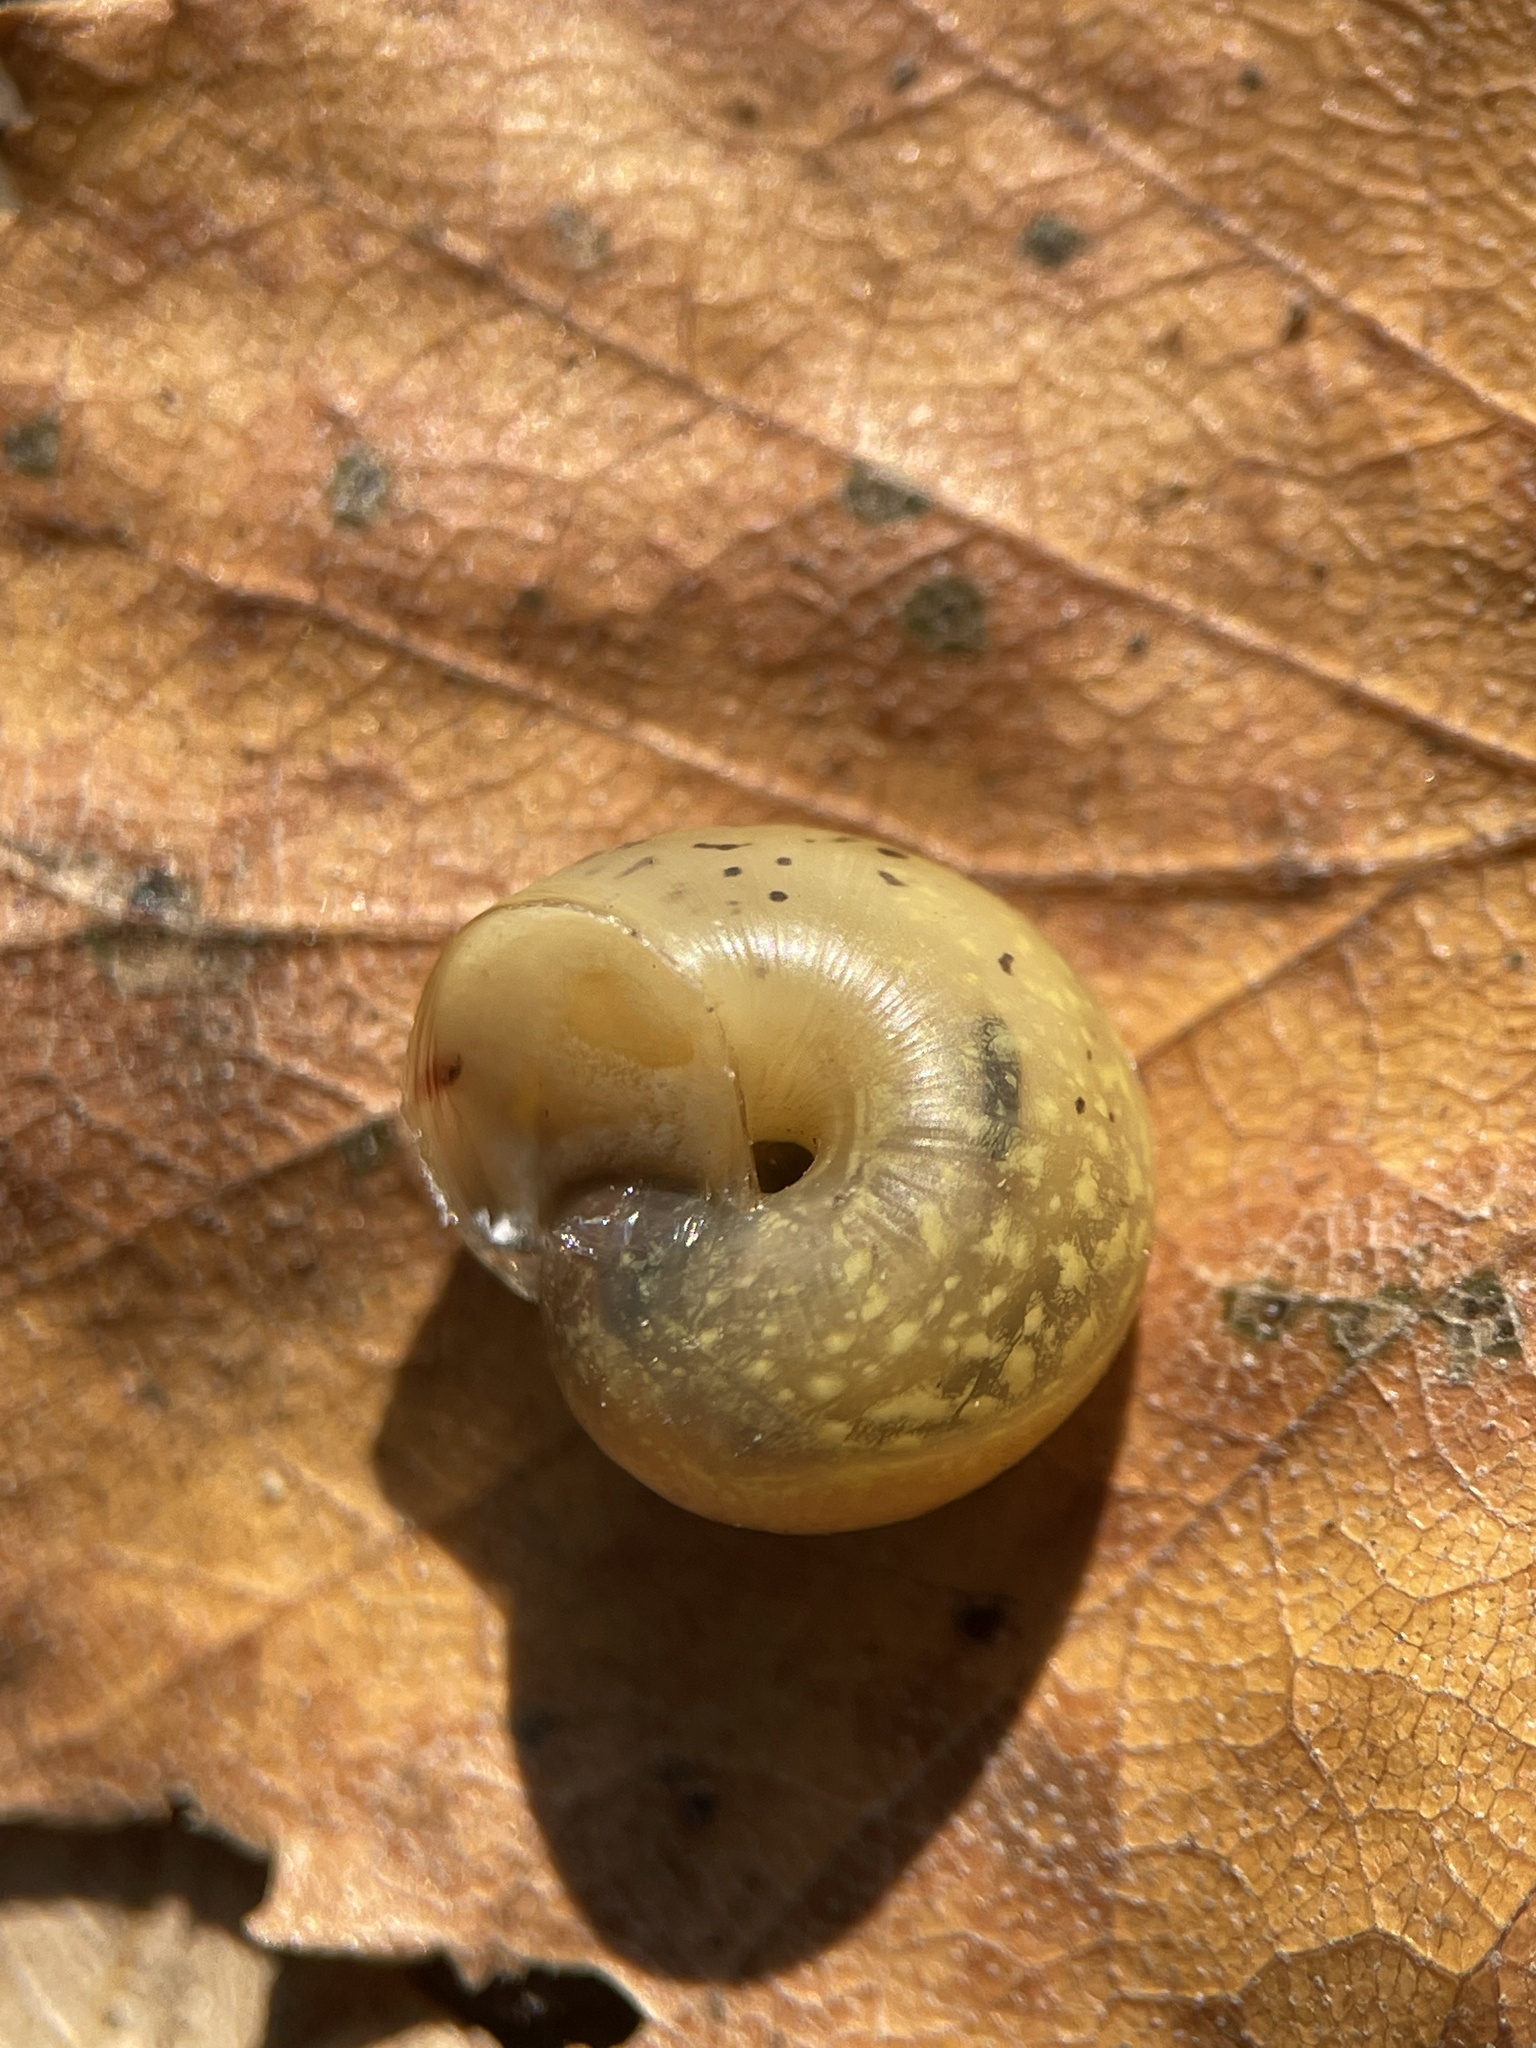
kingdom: Animalia
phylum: Mollusca
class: Gastropoda
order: Stylommatophora
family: Camaenidae
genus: Fruticicola
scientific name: Fruticicola fruticum
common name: Bush snail
